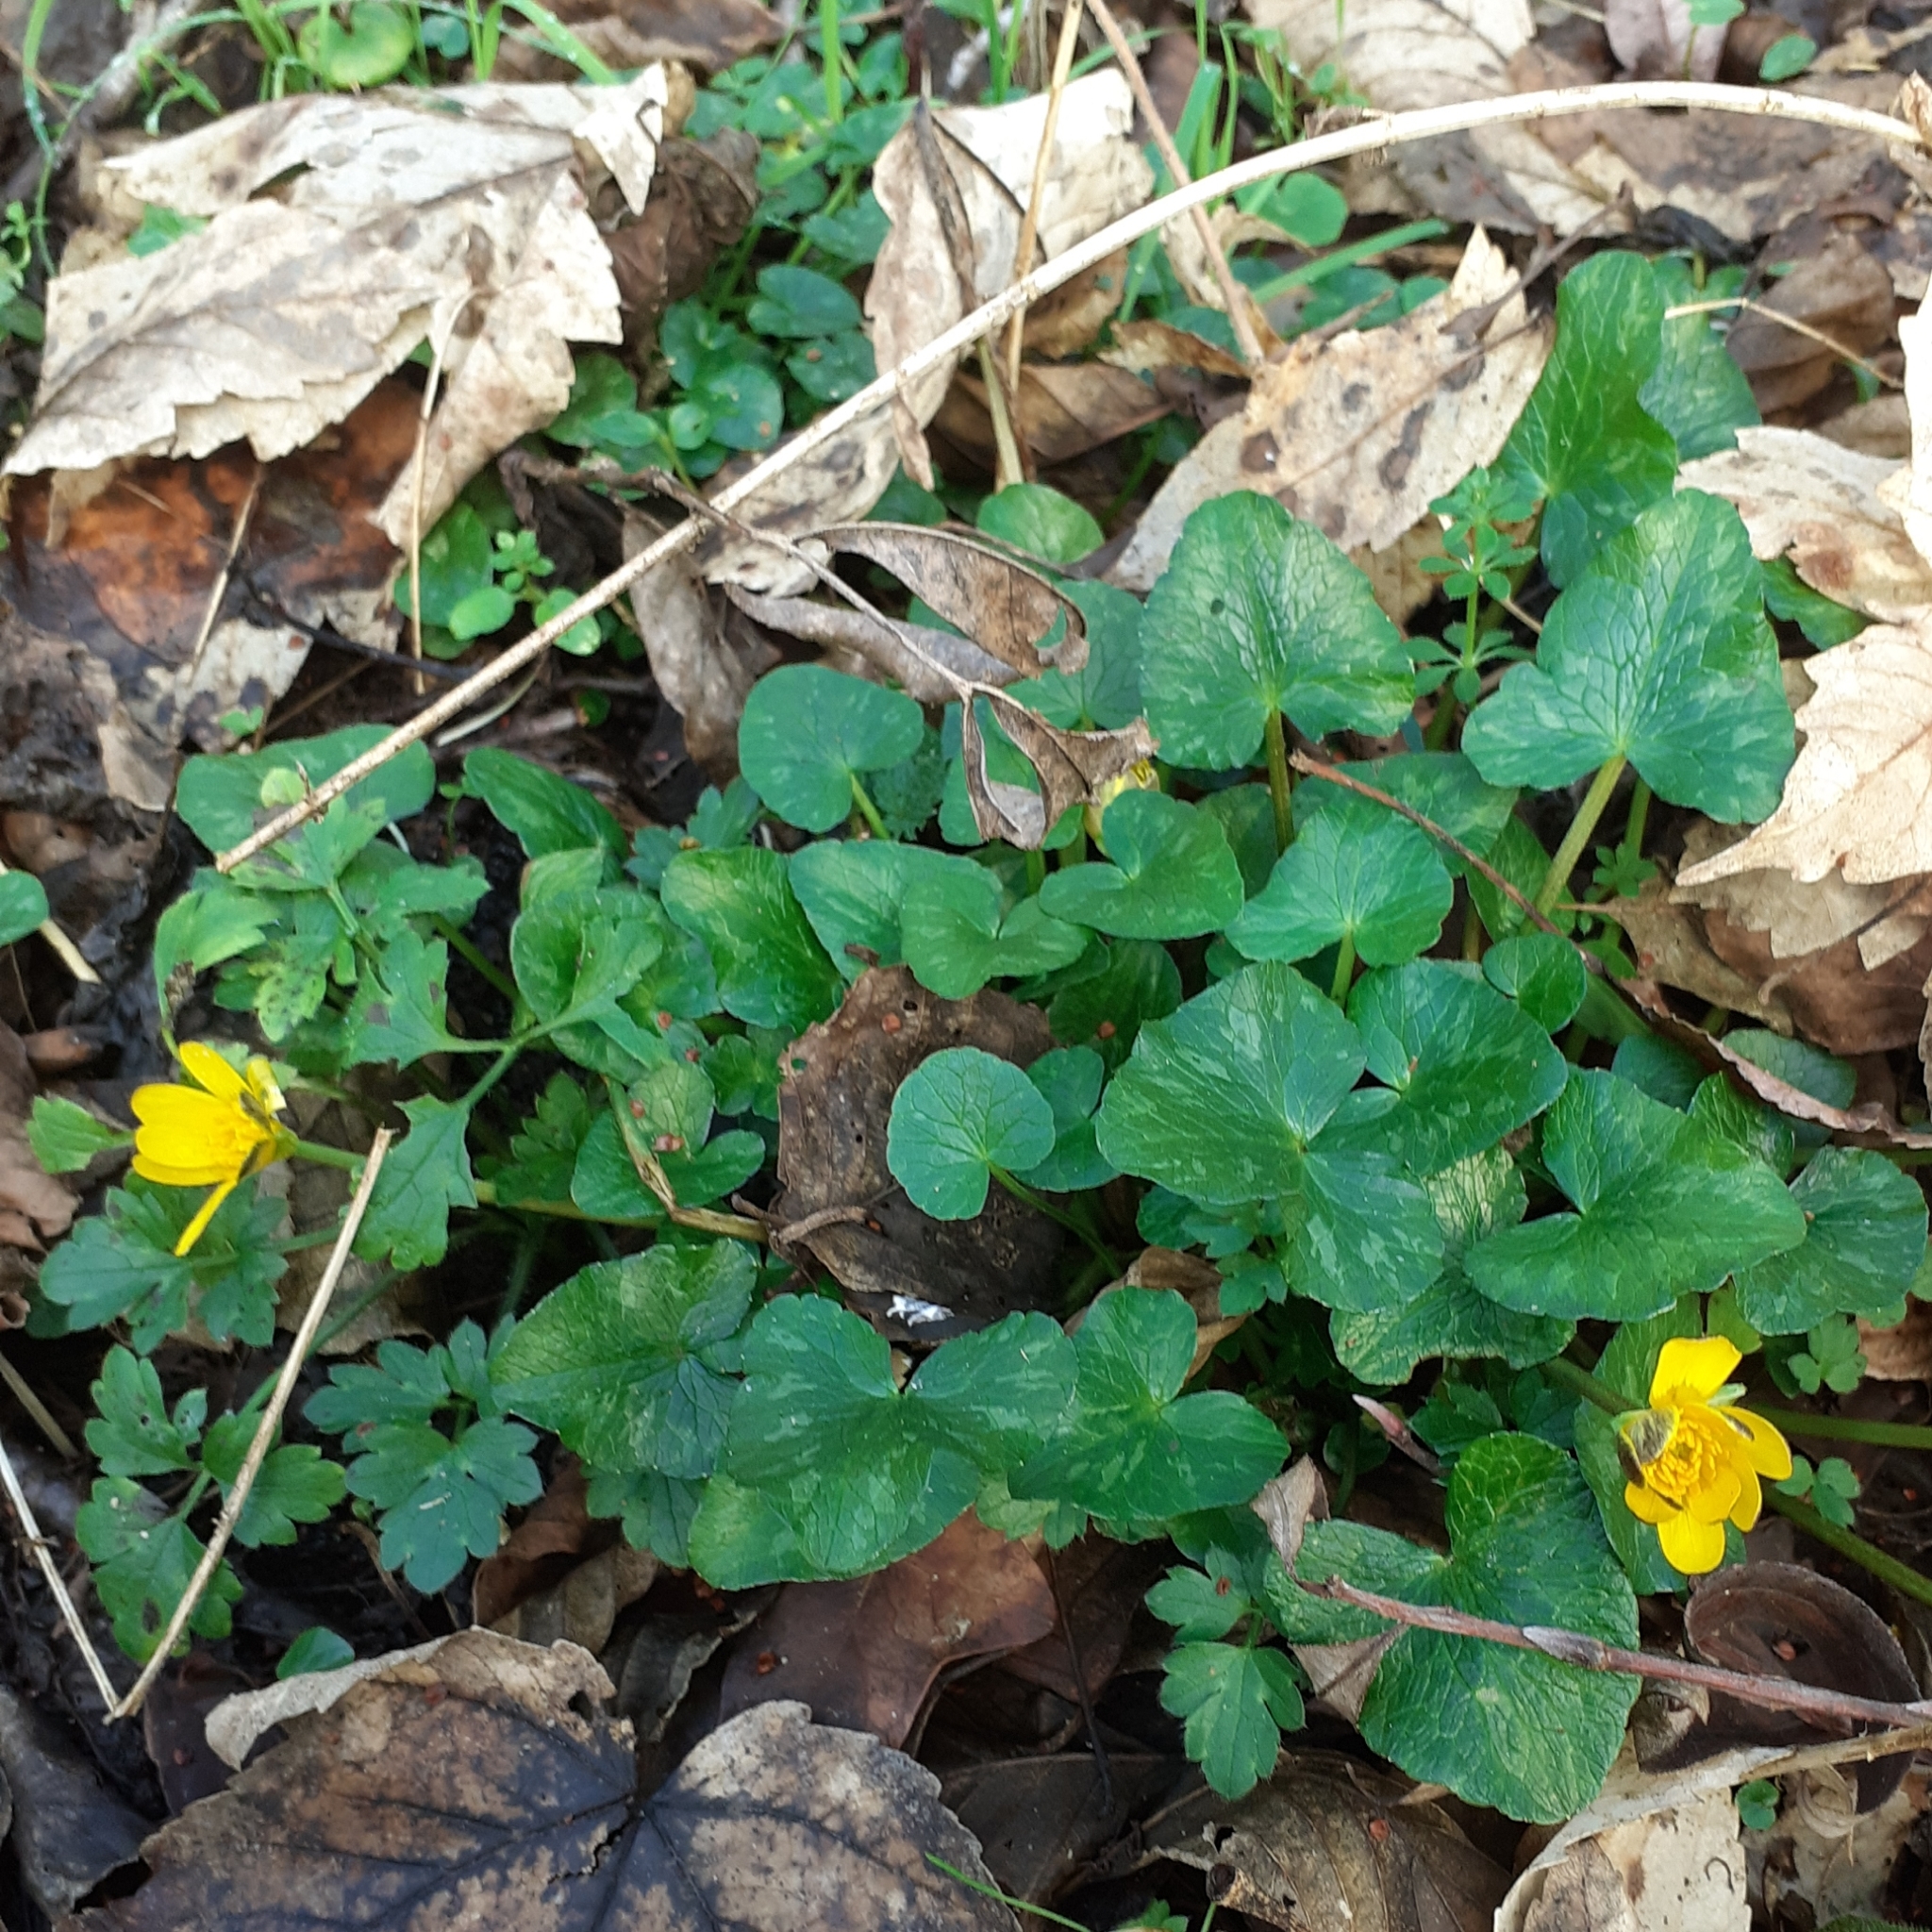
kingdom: Plantae
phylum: Tracheophyta
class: Magnoliopsida
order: Ranunculales
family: Ranunculaceae
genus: Ficaria
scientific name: Ficaria verna
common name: Lesser celandine
